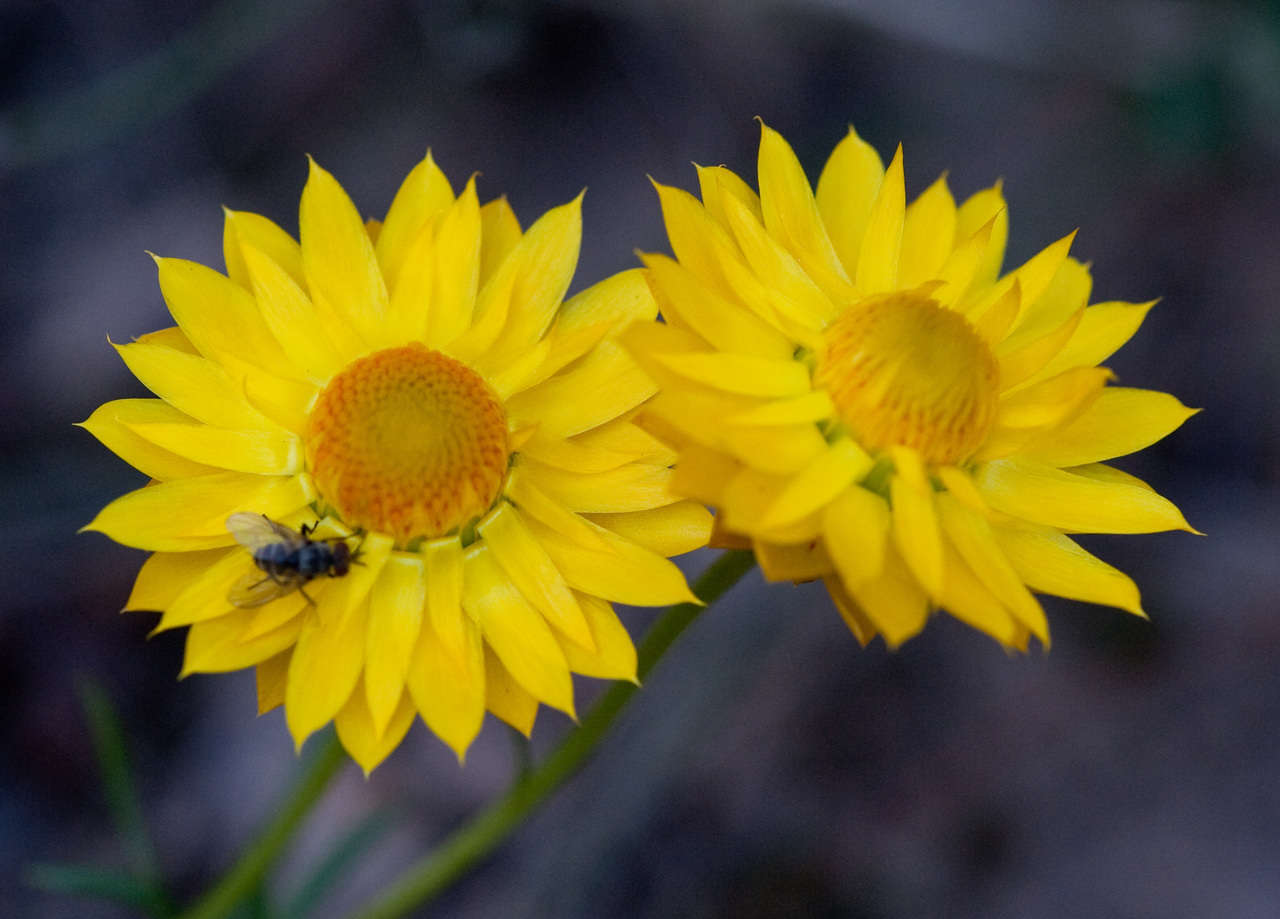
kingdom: Plantae
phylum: Tracheophyta
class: Magnoliopsida
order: Asterales
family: Asteraceae
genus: Xerochrysum
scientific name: Xerochrysum viscosum
